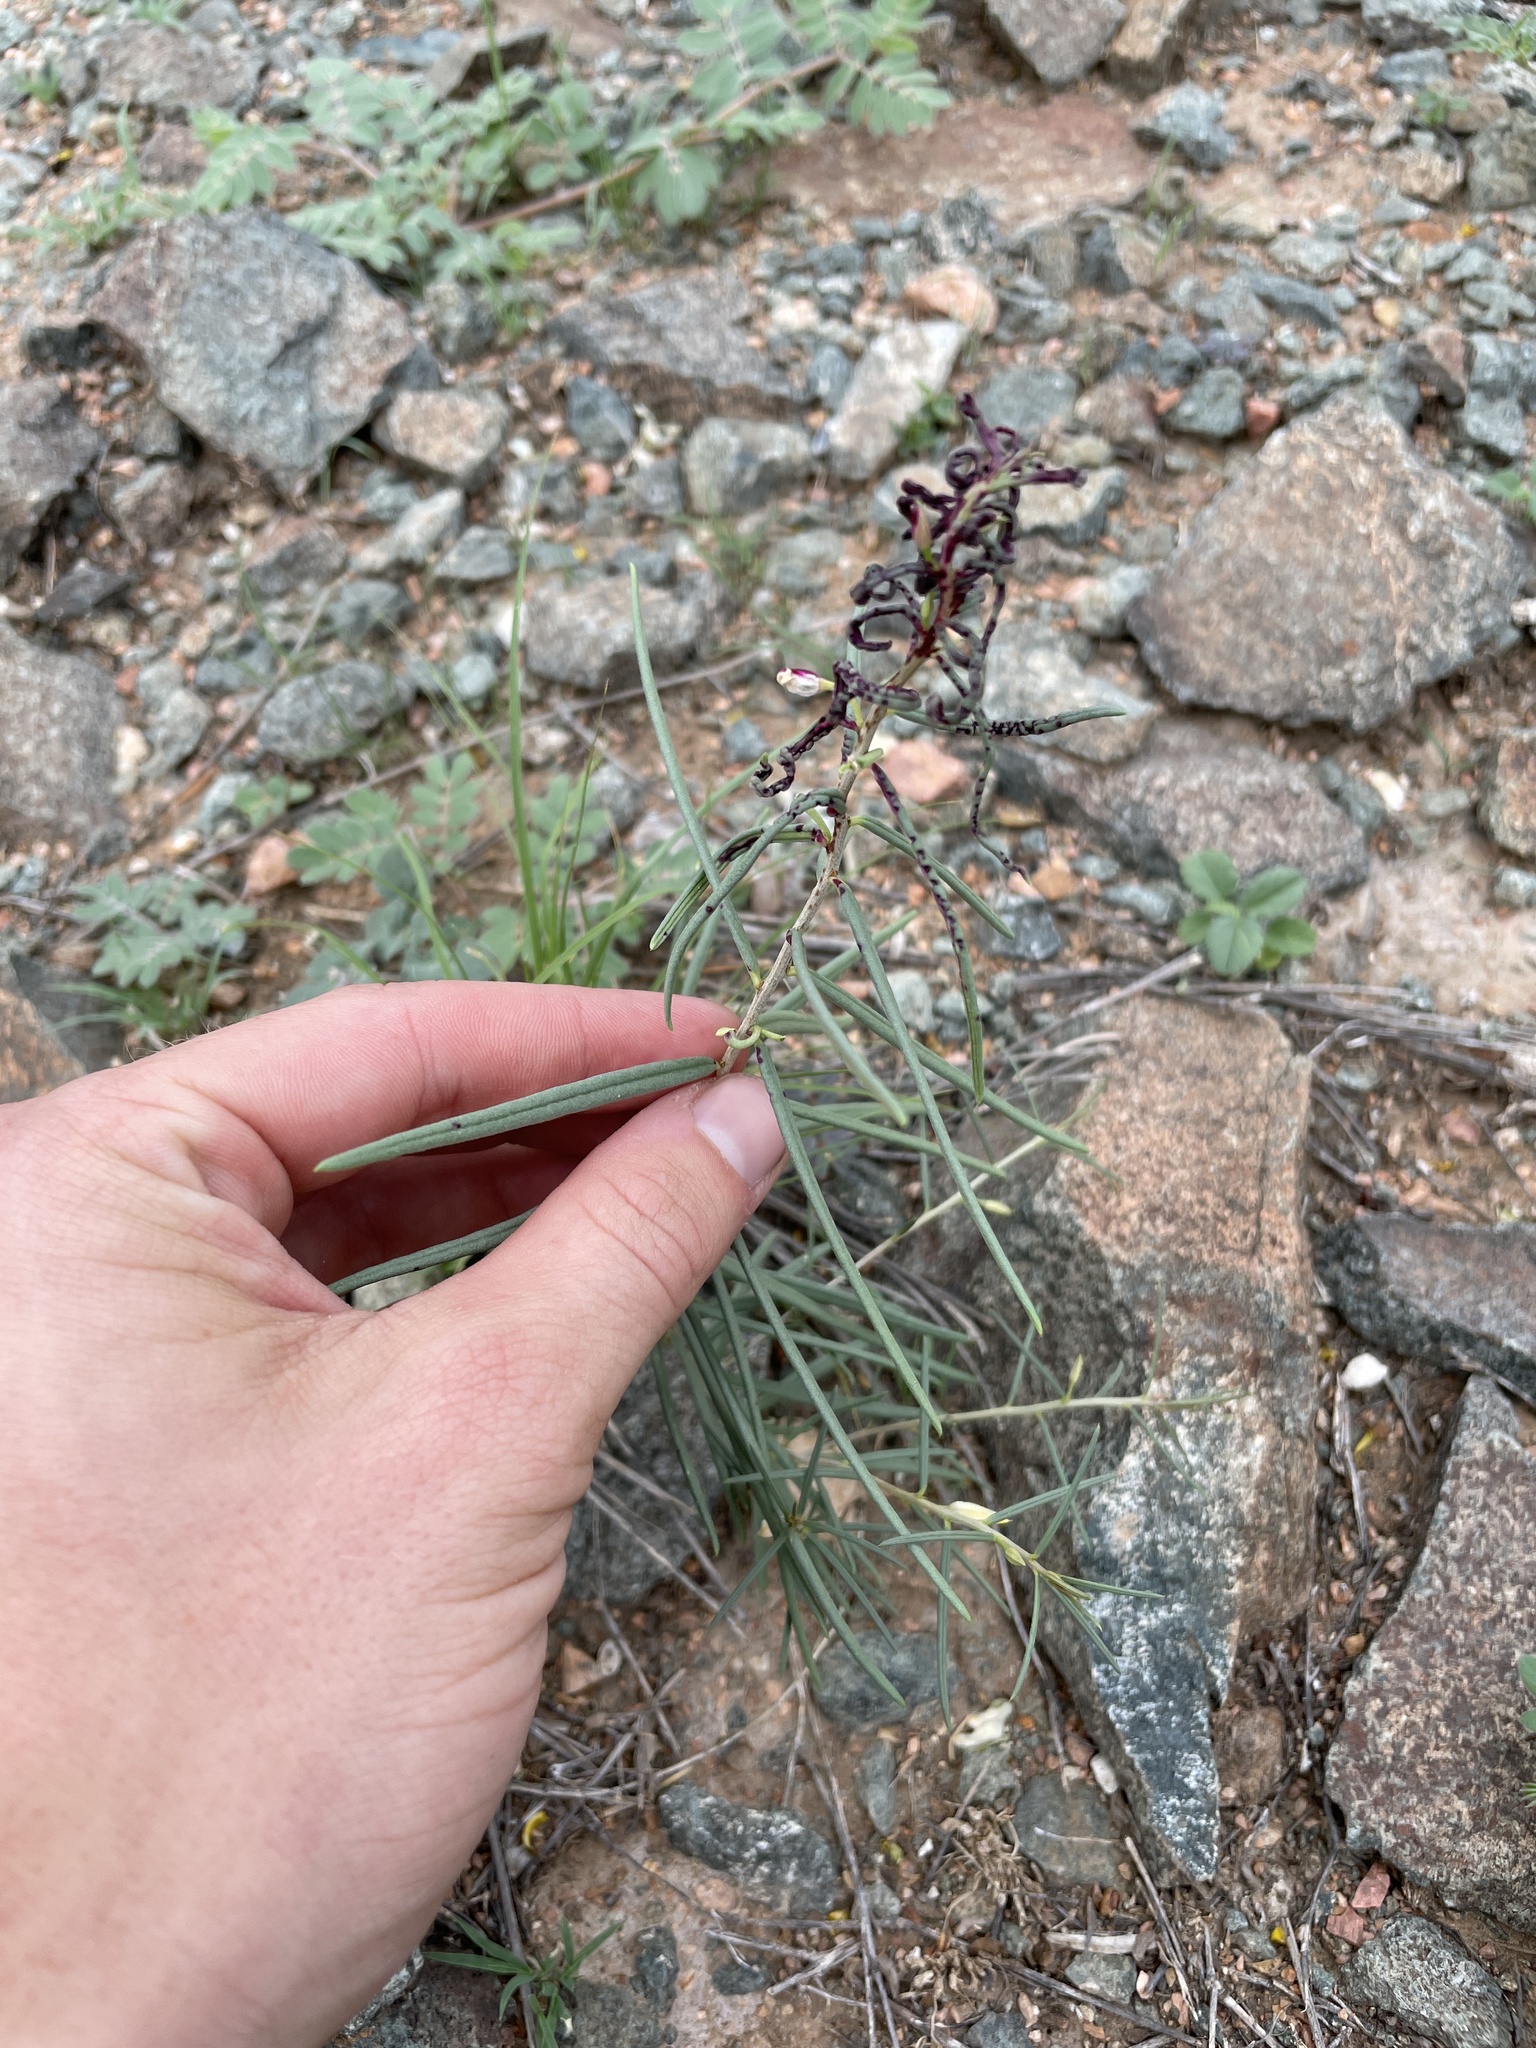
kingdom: Plantae
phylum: Tracheophyta
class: Magnoliopsida
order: Caryophyllales
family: Montiaceae
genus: Phemeranthus
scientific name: Phemeranthus aurantiacus
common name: Orange fameflower
